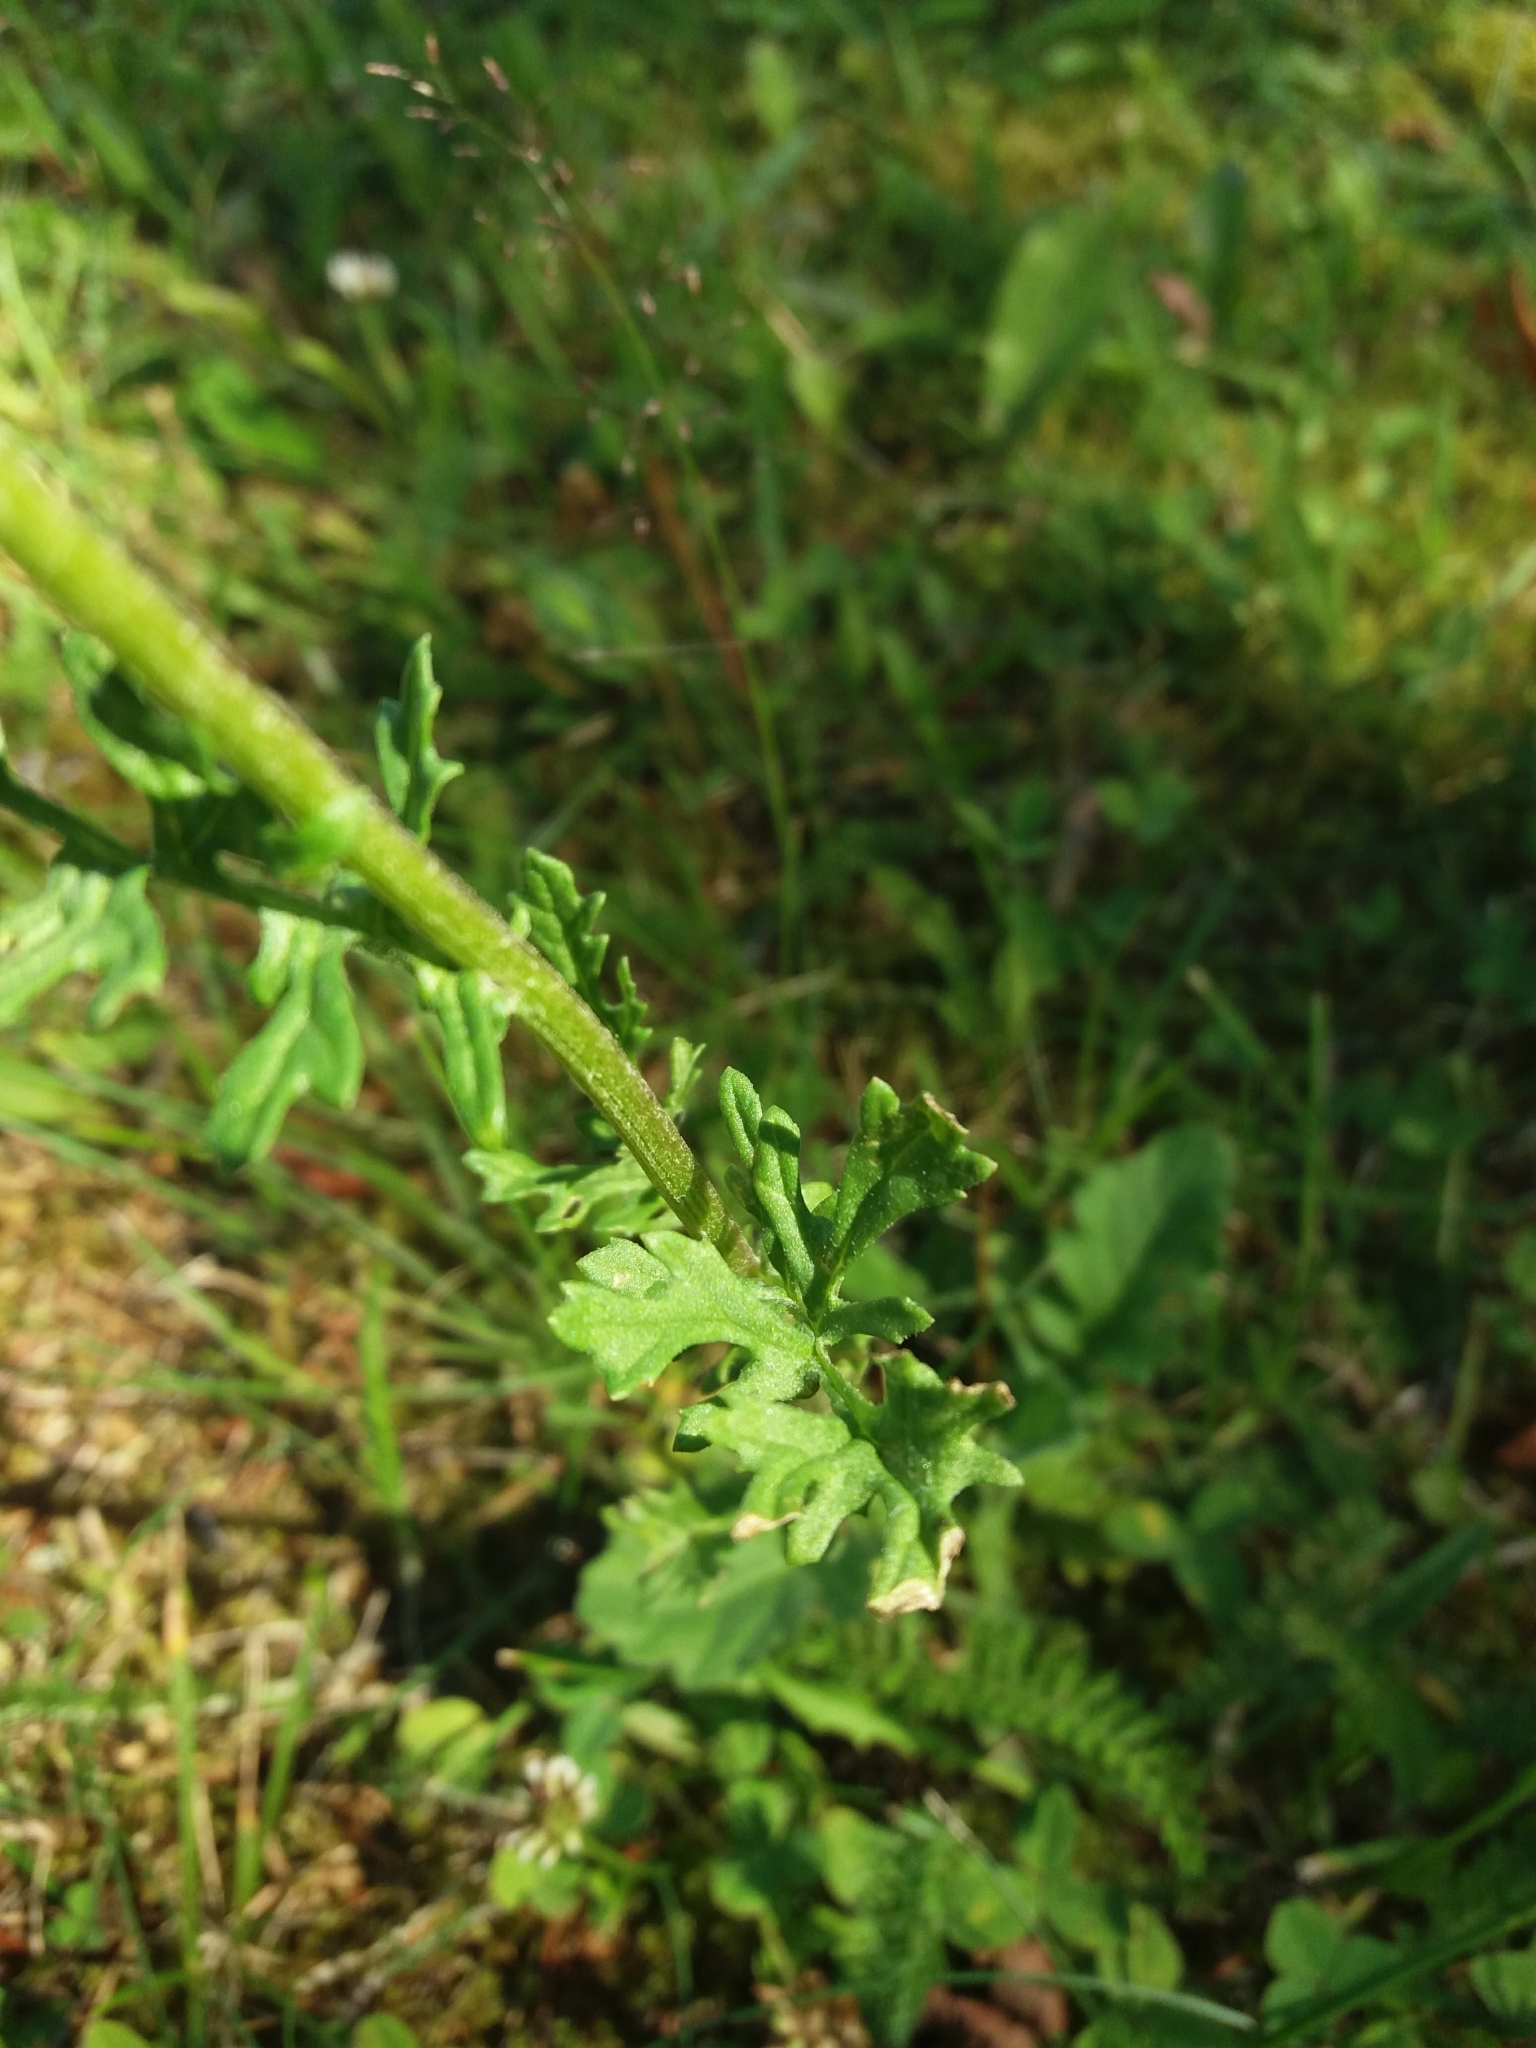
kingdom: Plantae
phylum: Tracheophyta
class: Magnoliopsida
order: Asterales
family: Asteraceae
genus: Jacobaea
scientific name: Jacobaea vulgaris
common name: Stinking willie
